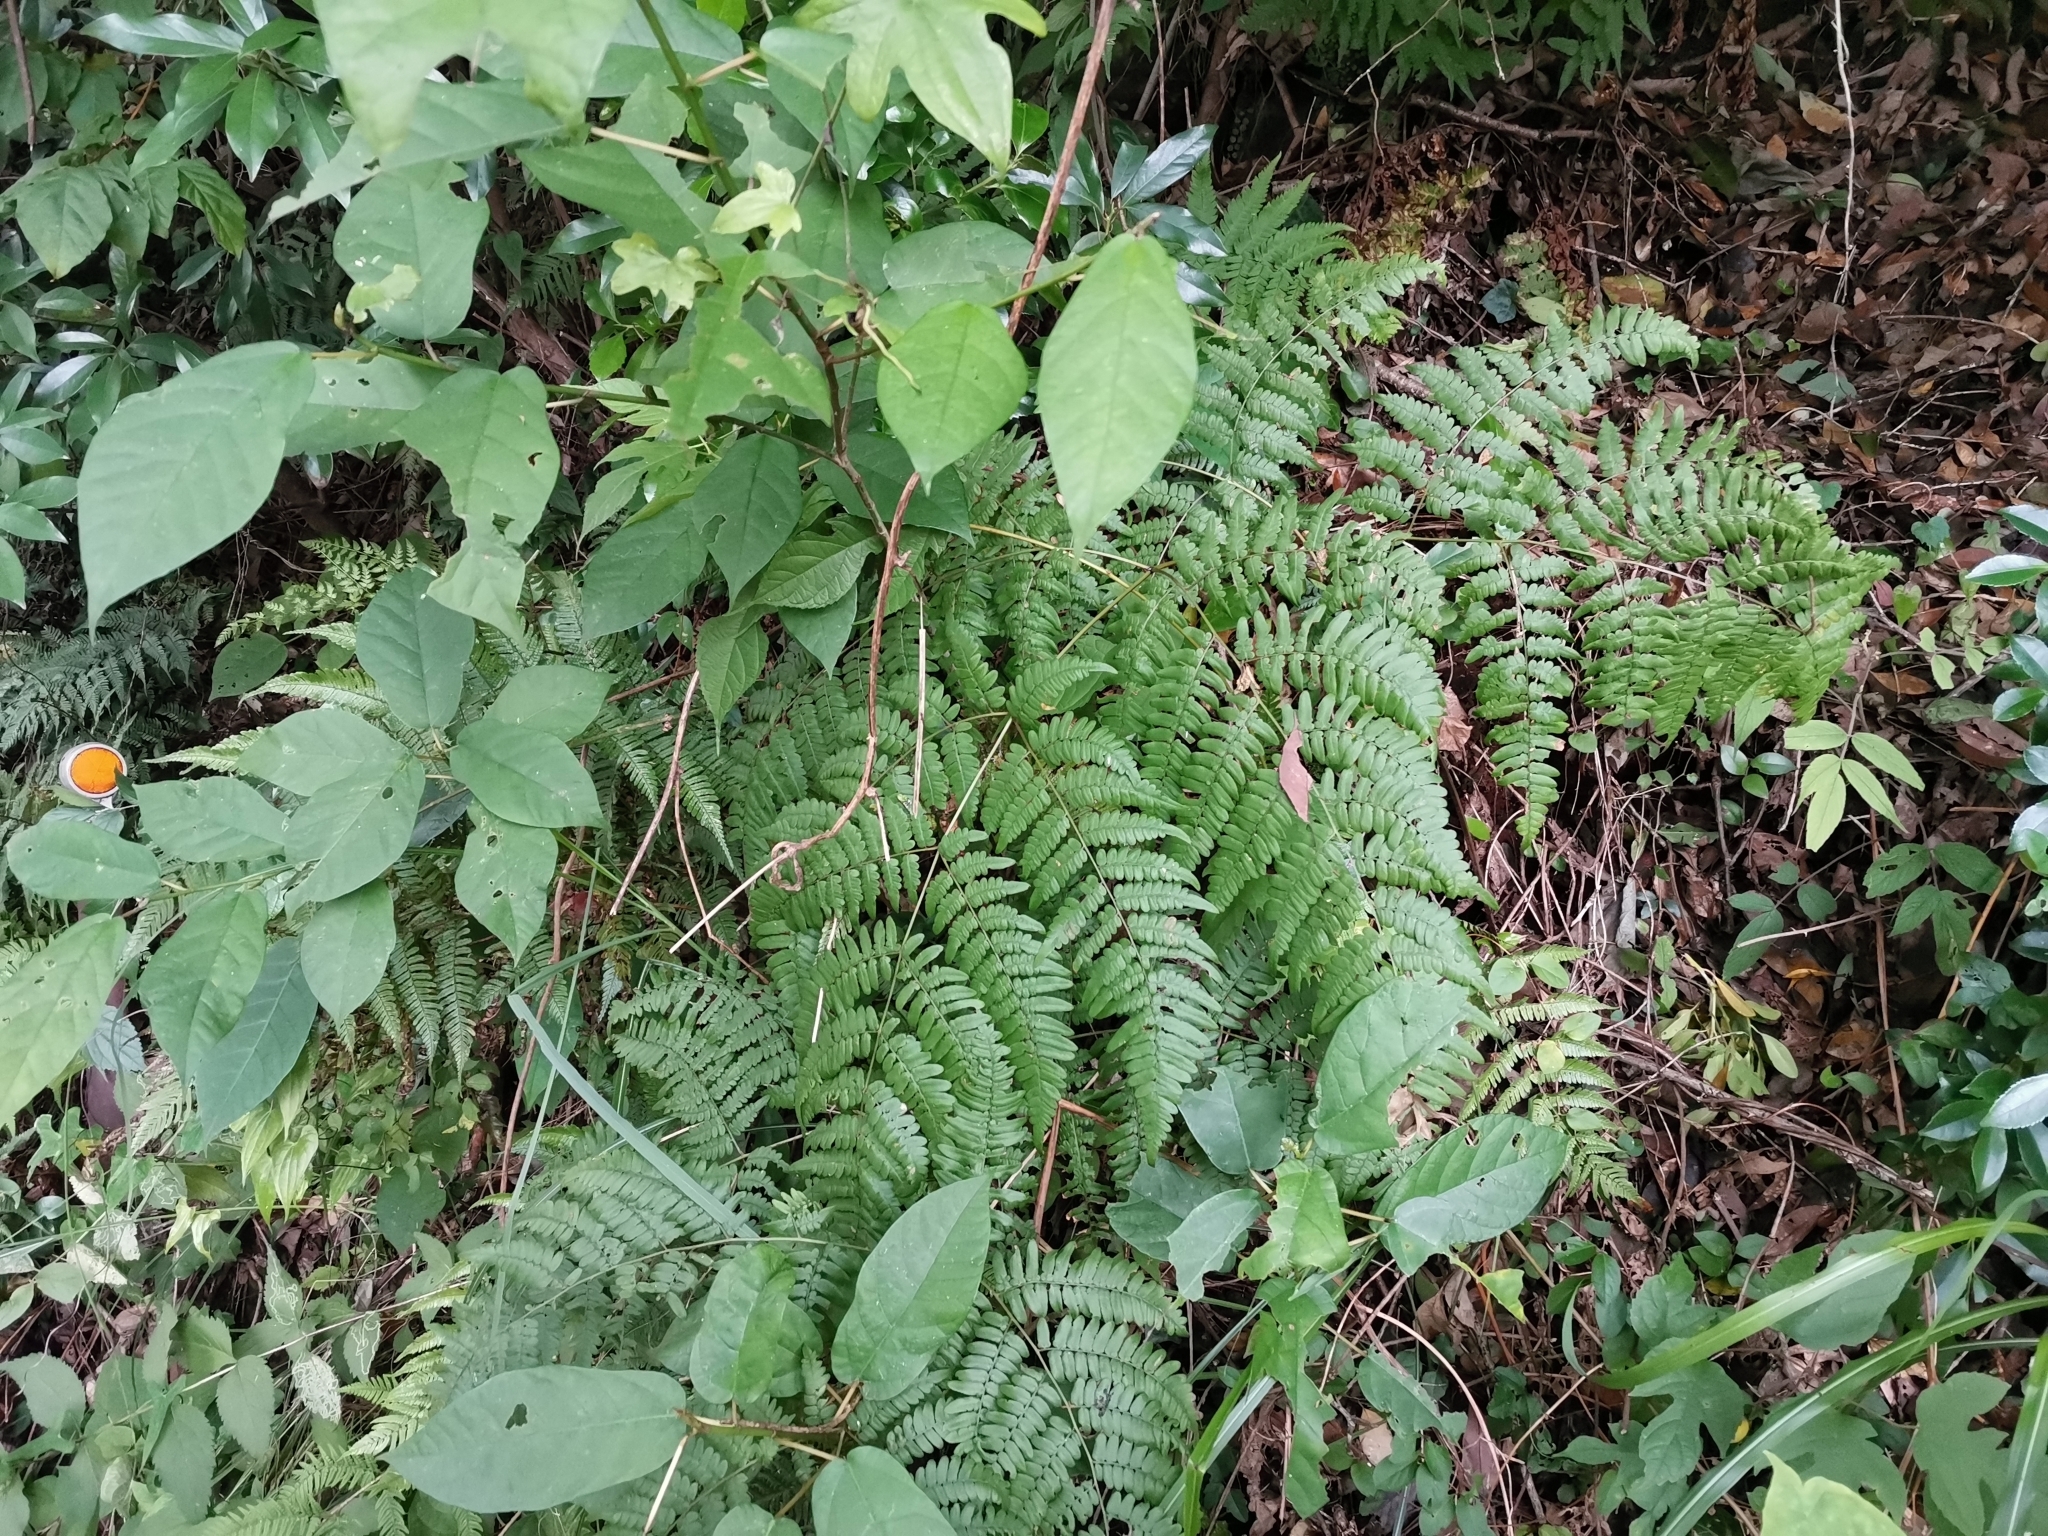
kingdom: Plantae
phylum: Tracheophyta
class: Polypodiopsida
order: Polypodiales
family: Dennstaedtiaceae
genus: Pteridium
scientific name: Pteridium aquilinum
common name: Bracken
